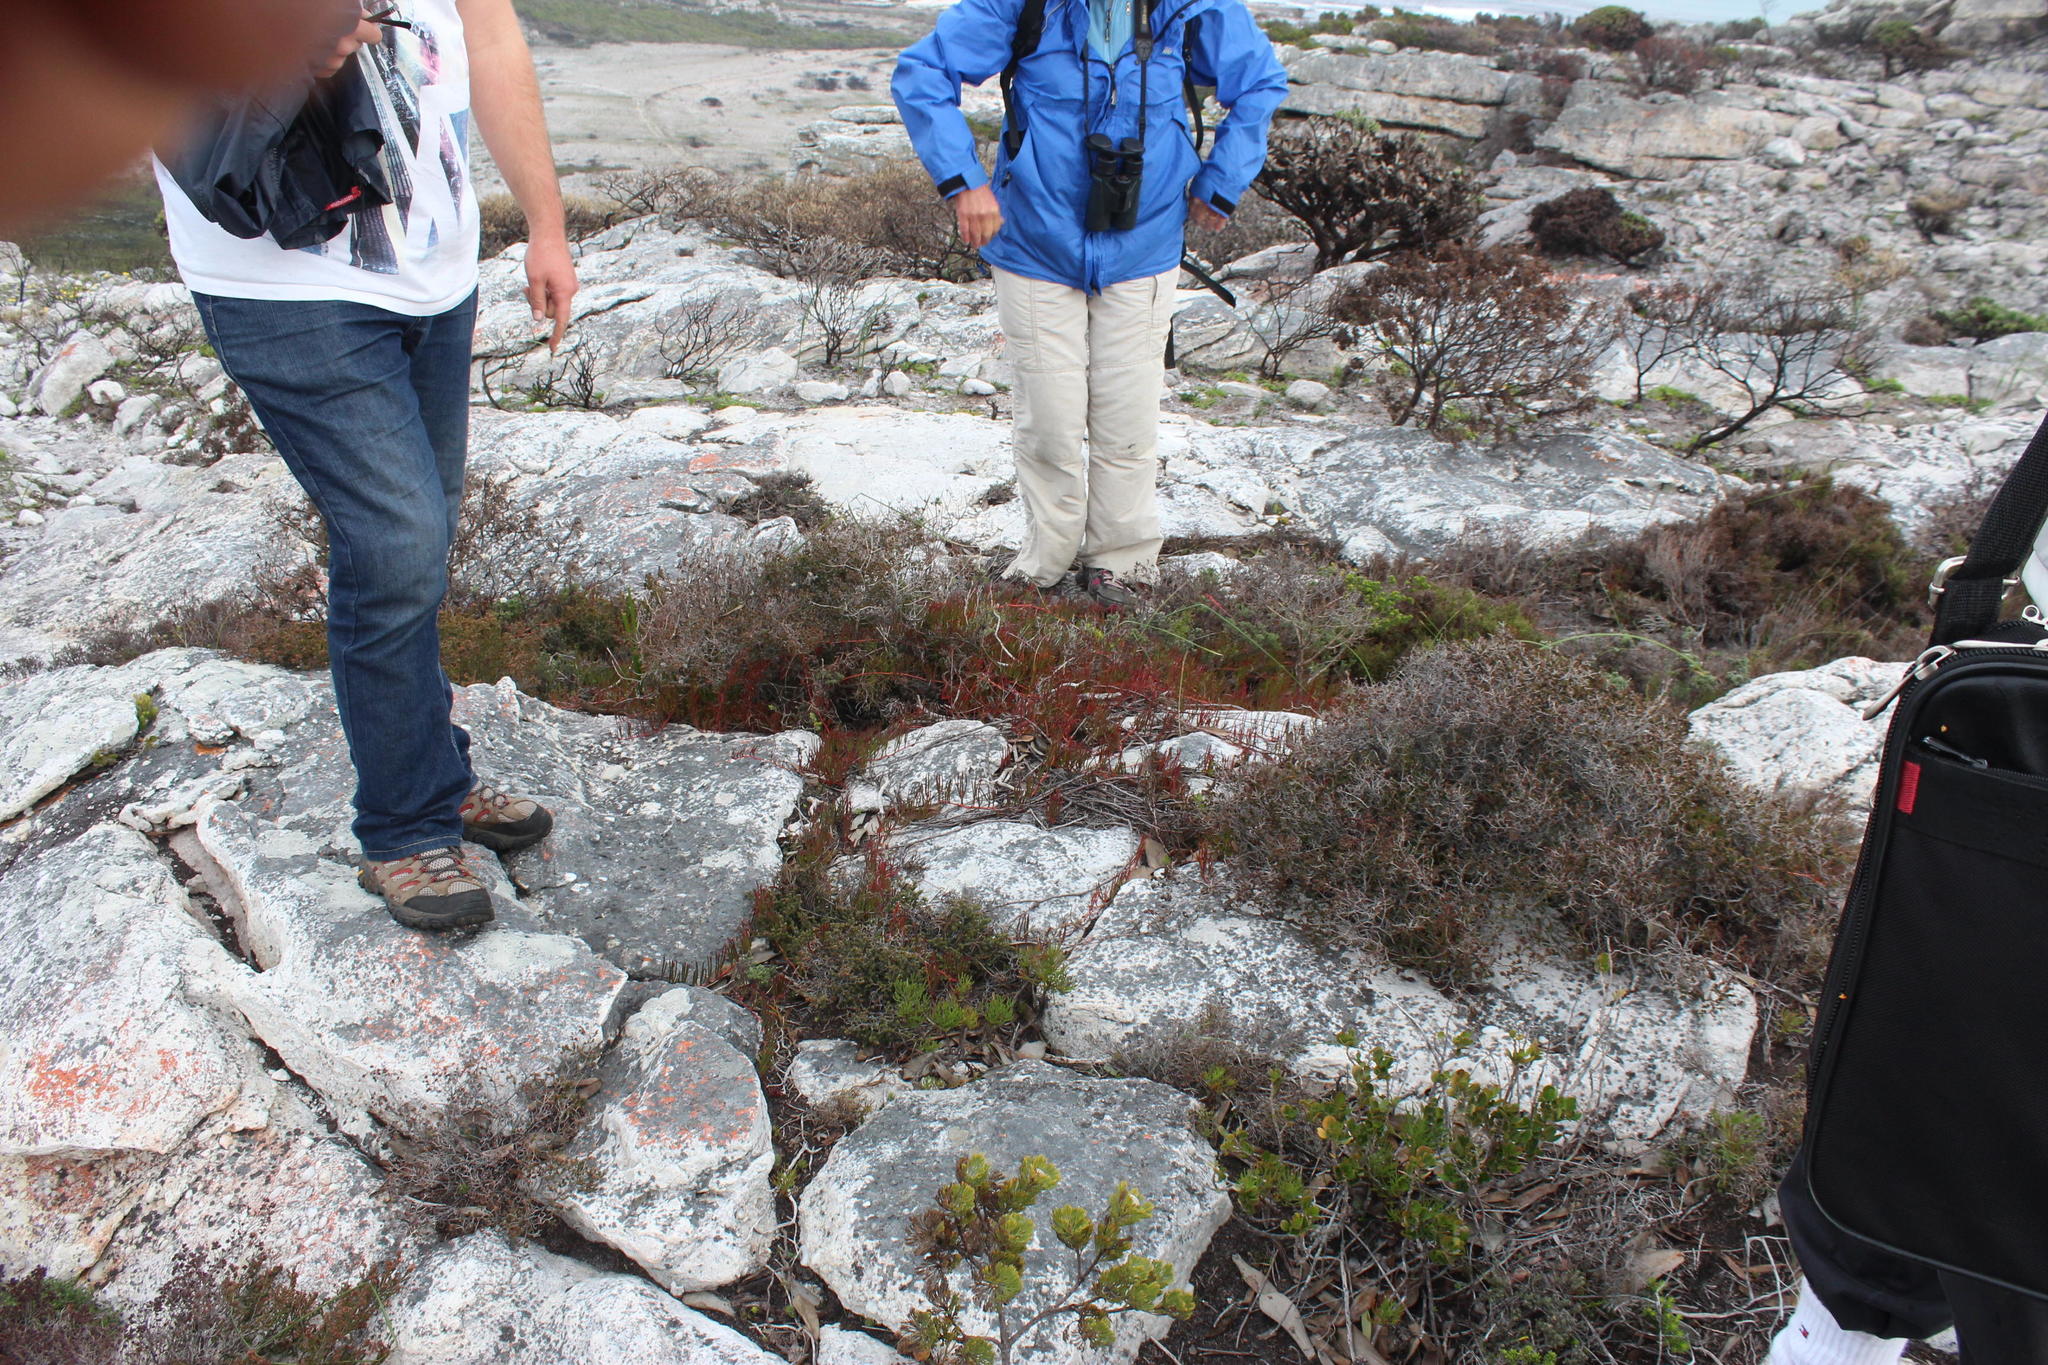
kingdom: Plantae
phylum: Tracheophyta
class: Magnoliopsida
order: Proteales
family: Proteaceae
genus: Serruria
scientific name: Serruria decumbens
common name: Peninsula spiderhead
